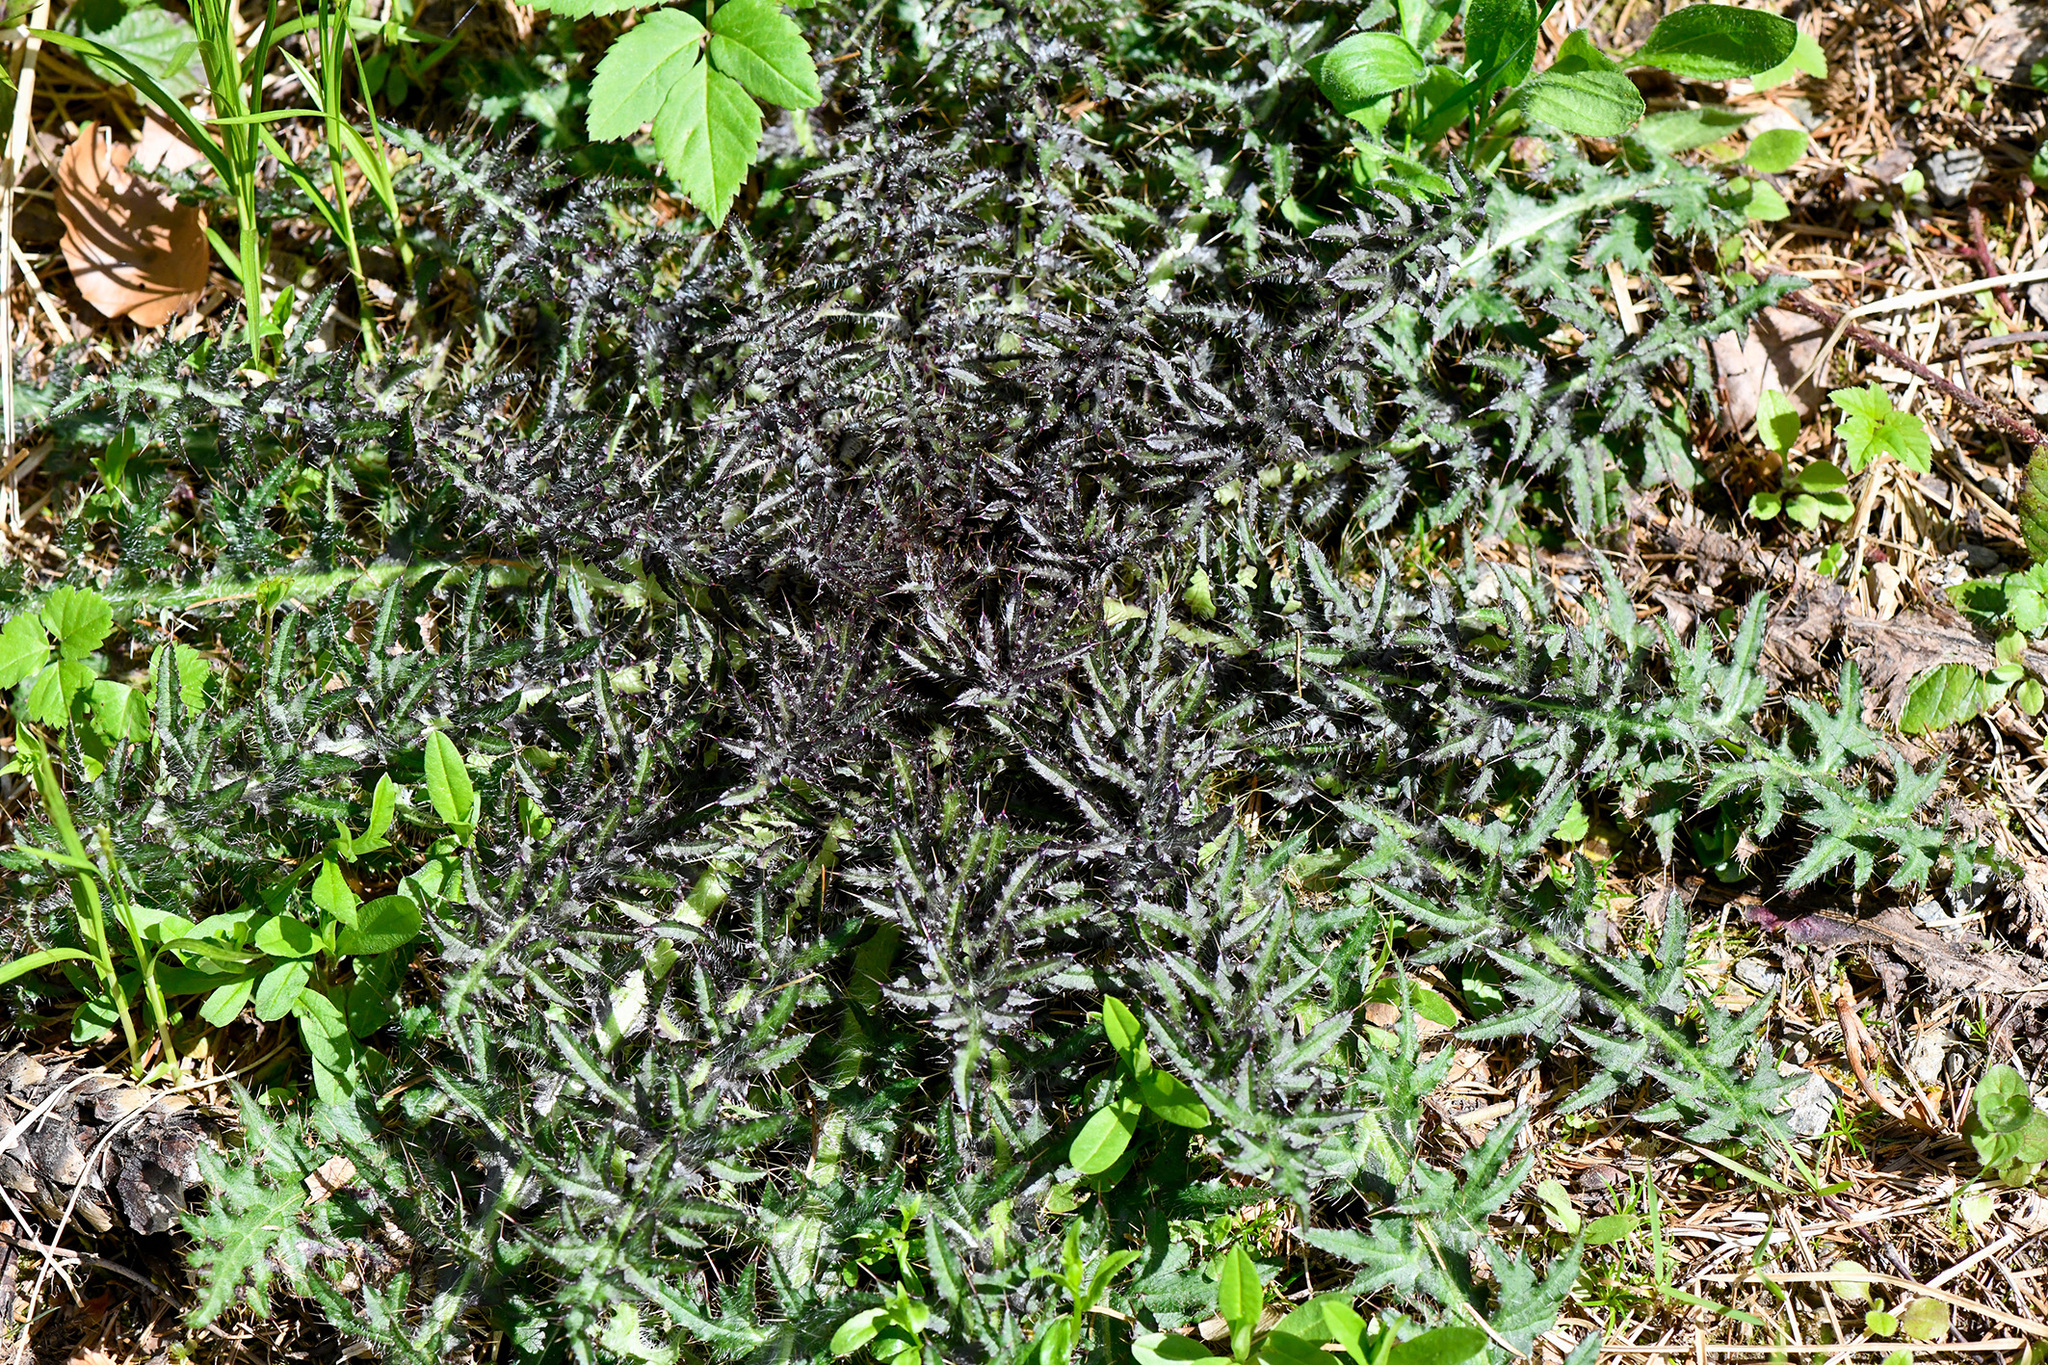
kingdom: Plantae
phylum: Tracheophyta
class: Magnoliopsida
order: Asterales
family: Asteraceae
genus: Cirsium
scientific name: Cirsium palustre
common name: Marsh thistle
